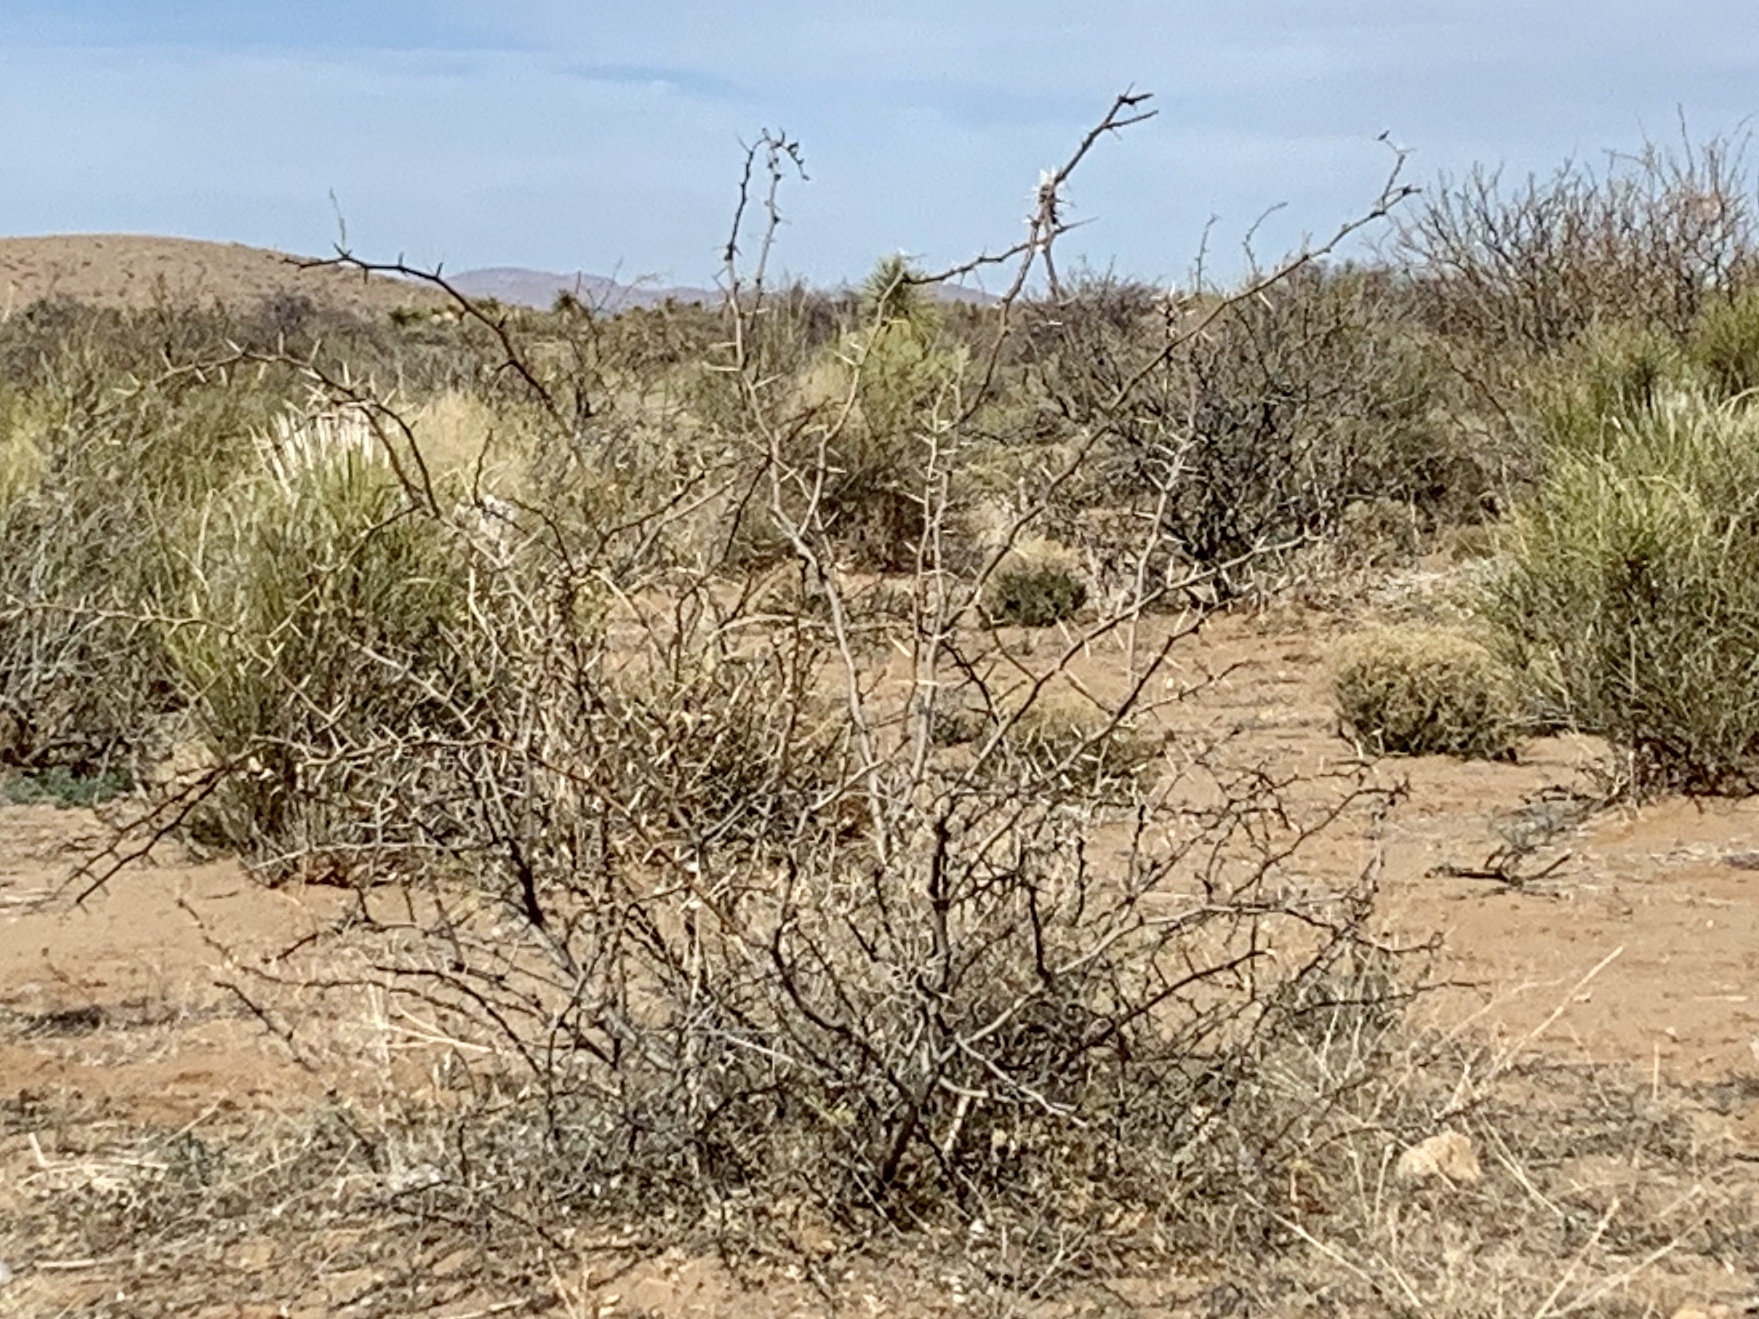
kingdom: Plantae
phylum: Tracheophyta
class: Magnoliopsida
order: Fabales
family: Fabaceae
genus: Prosopis
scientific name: Prosopis glandulosa
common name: Honey mesquite
